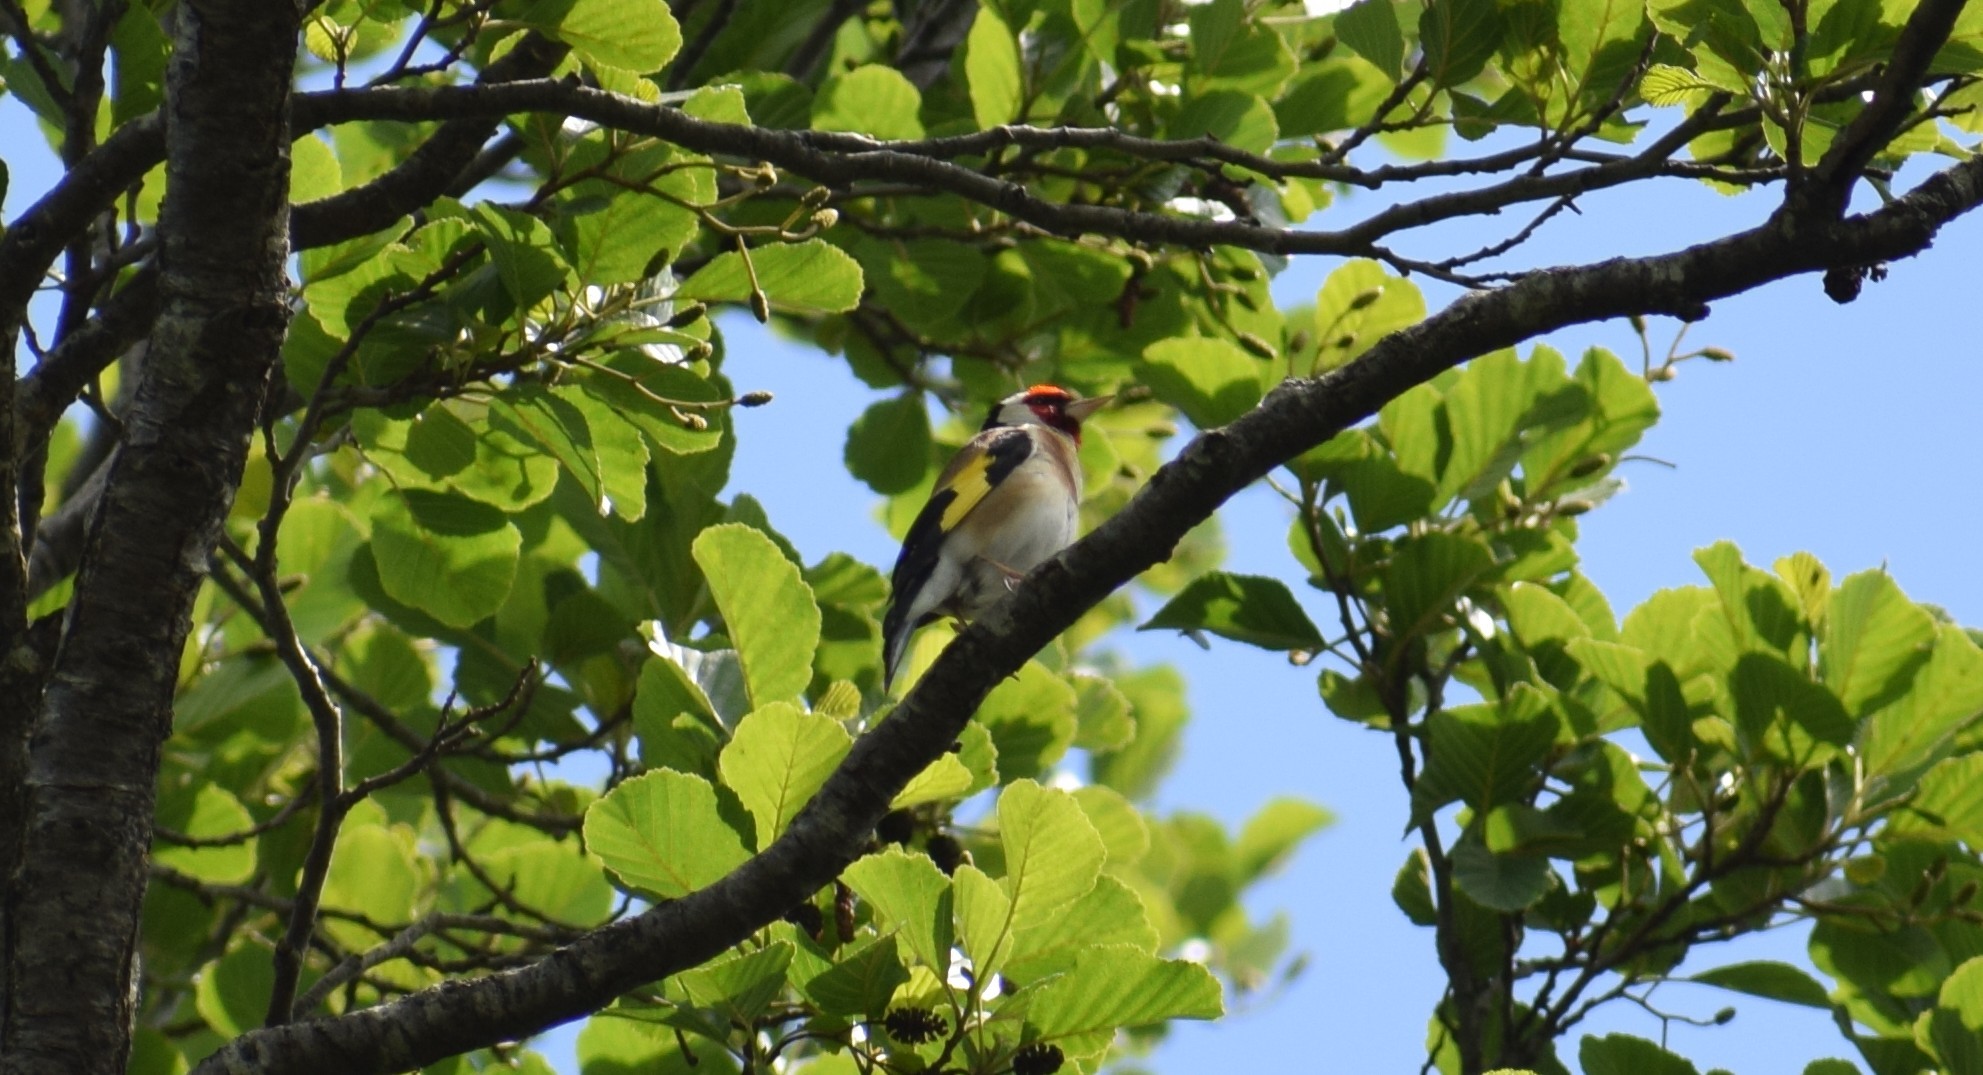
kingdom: Animalia
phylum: Chordata
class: Aves
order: Passeriformes
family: Fringillidae
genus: Carduelis
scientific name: Carduelis carduelis
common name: European goldfinch
